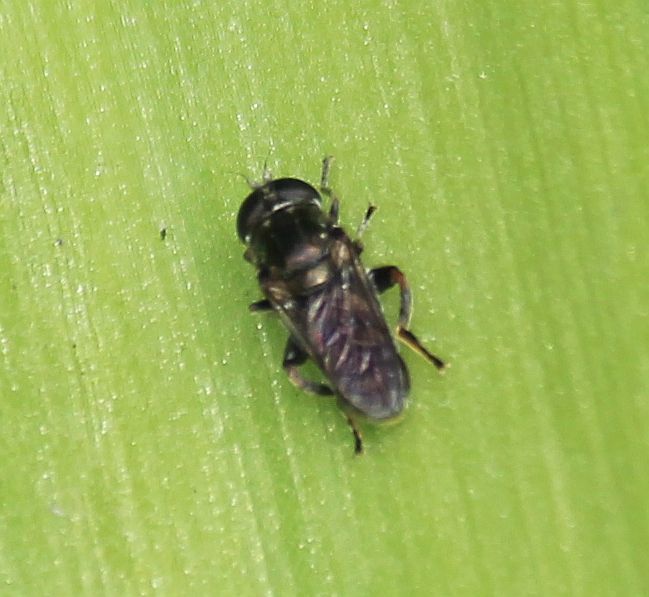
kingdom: Animalia
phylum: Arthropoda
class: Insecta
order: Diptera
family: Syrphidae
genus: Eumerus
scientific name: Eumerus
